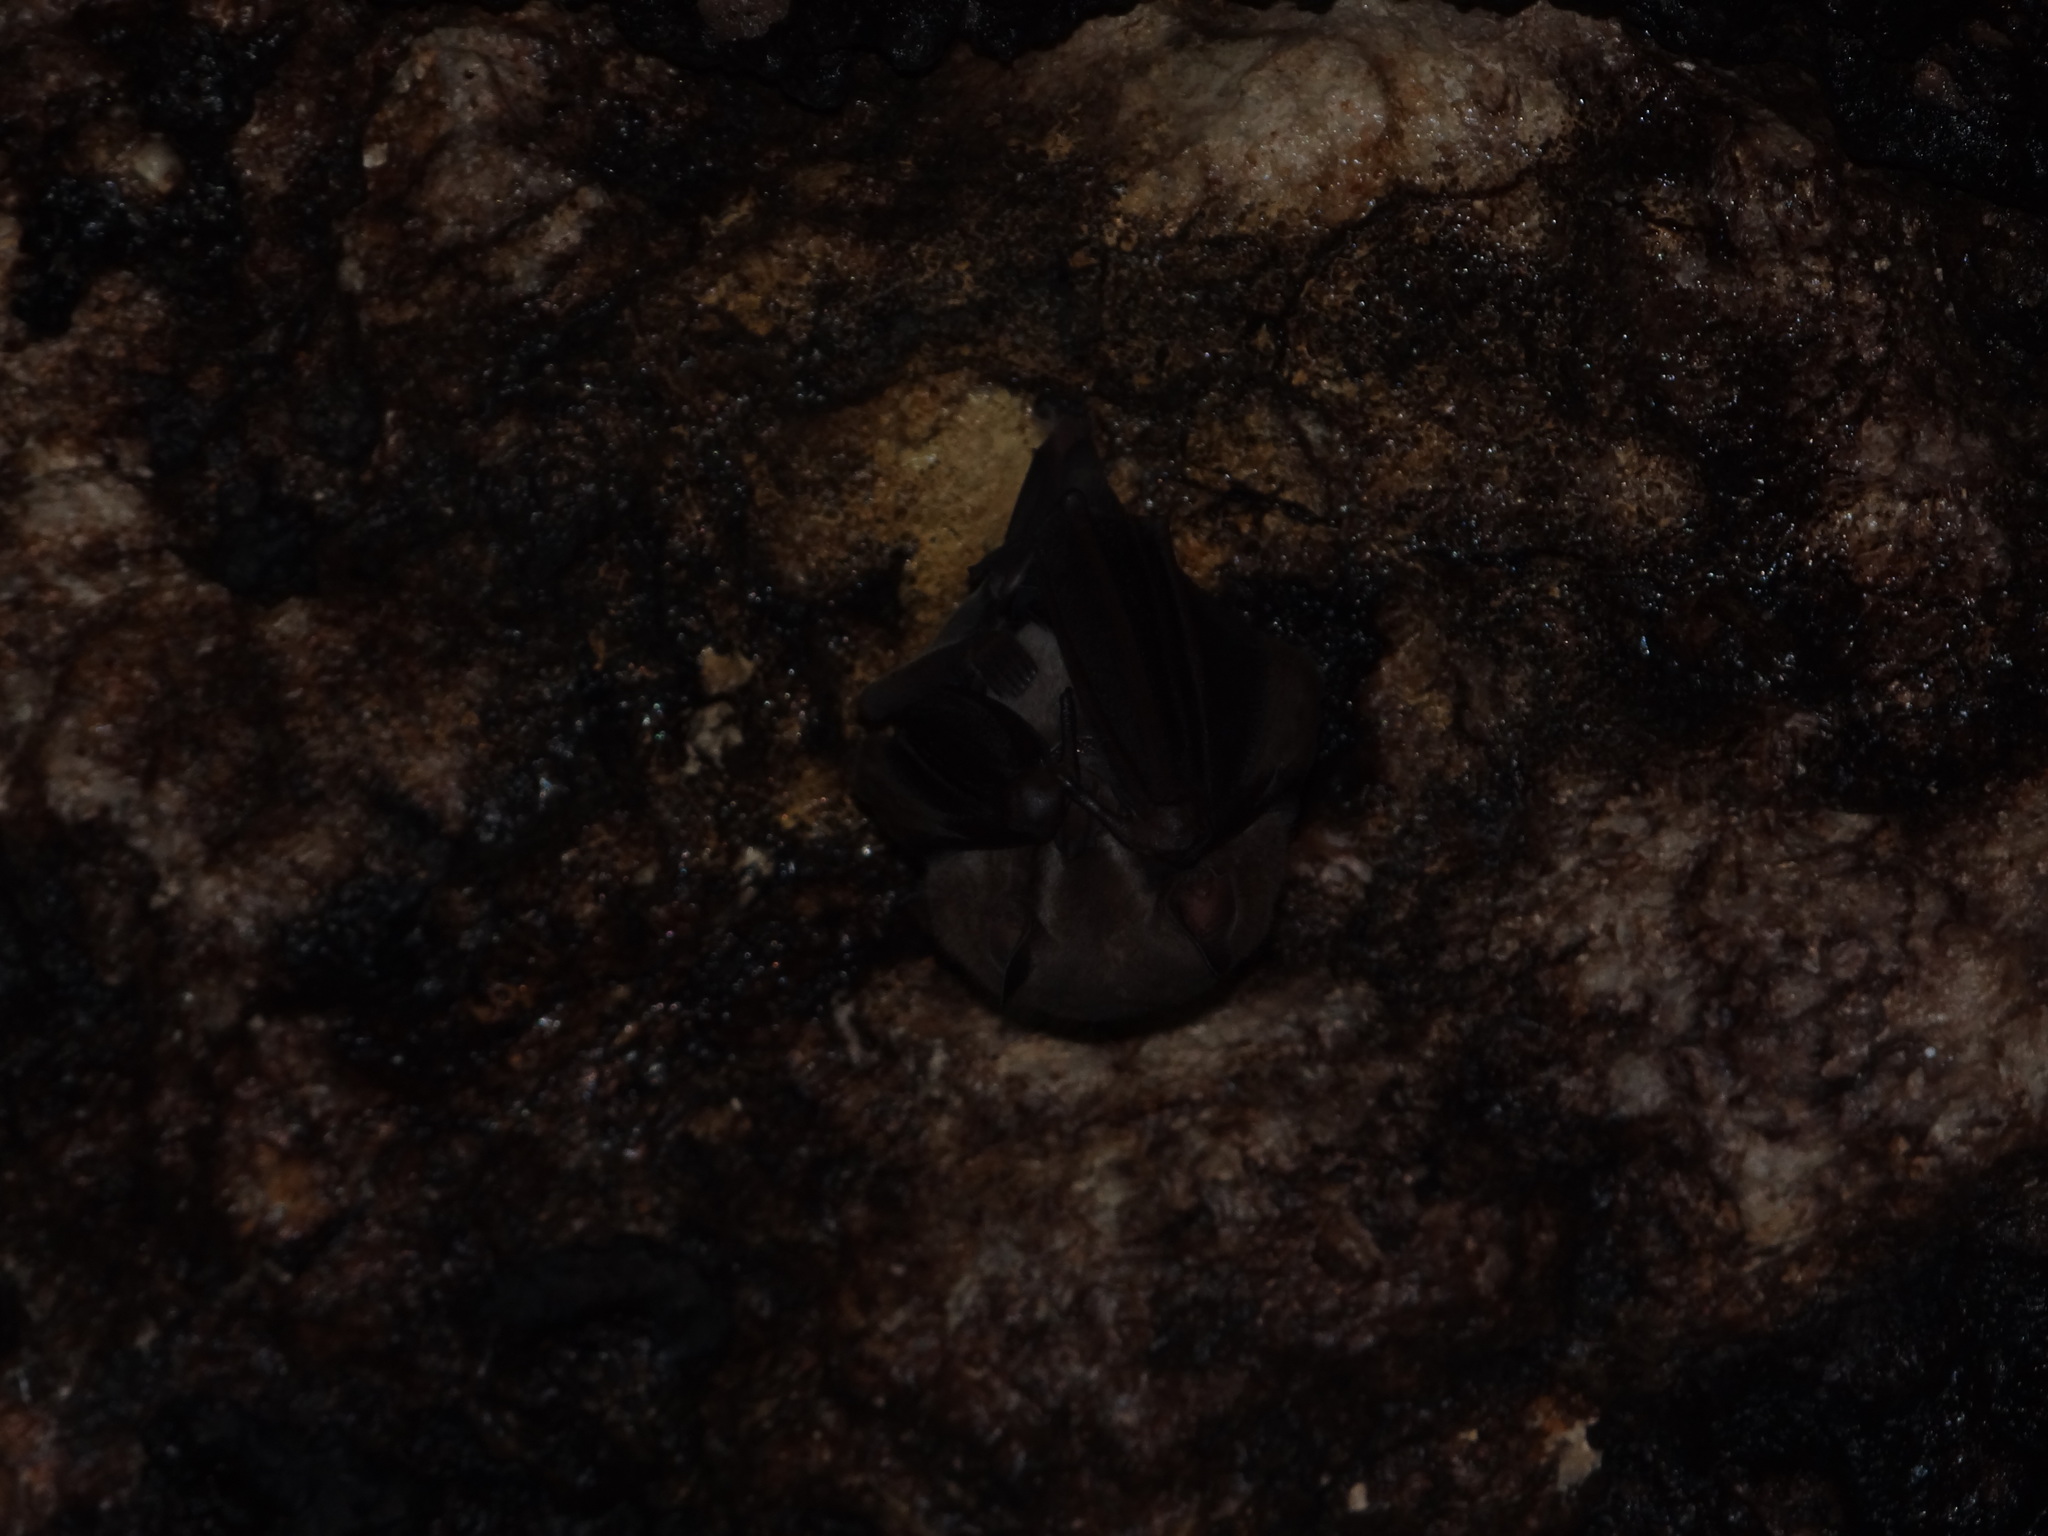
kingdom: Animalia
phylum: Chordata
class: Mammalia
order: Chiroptera
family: Phyllostomidae
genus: Artibeus
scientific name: Artibeus jamaicensis
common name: Jamaican fruit-eating bat
